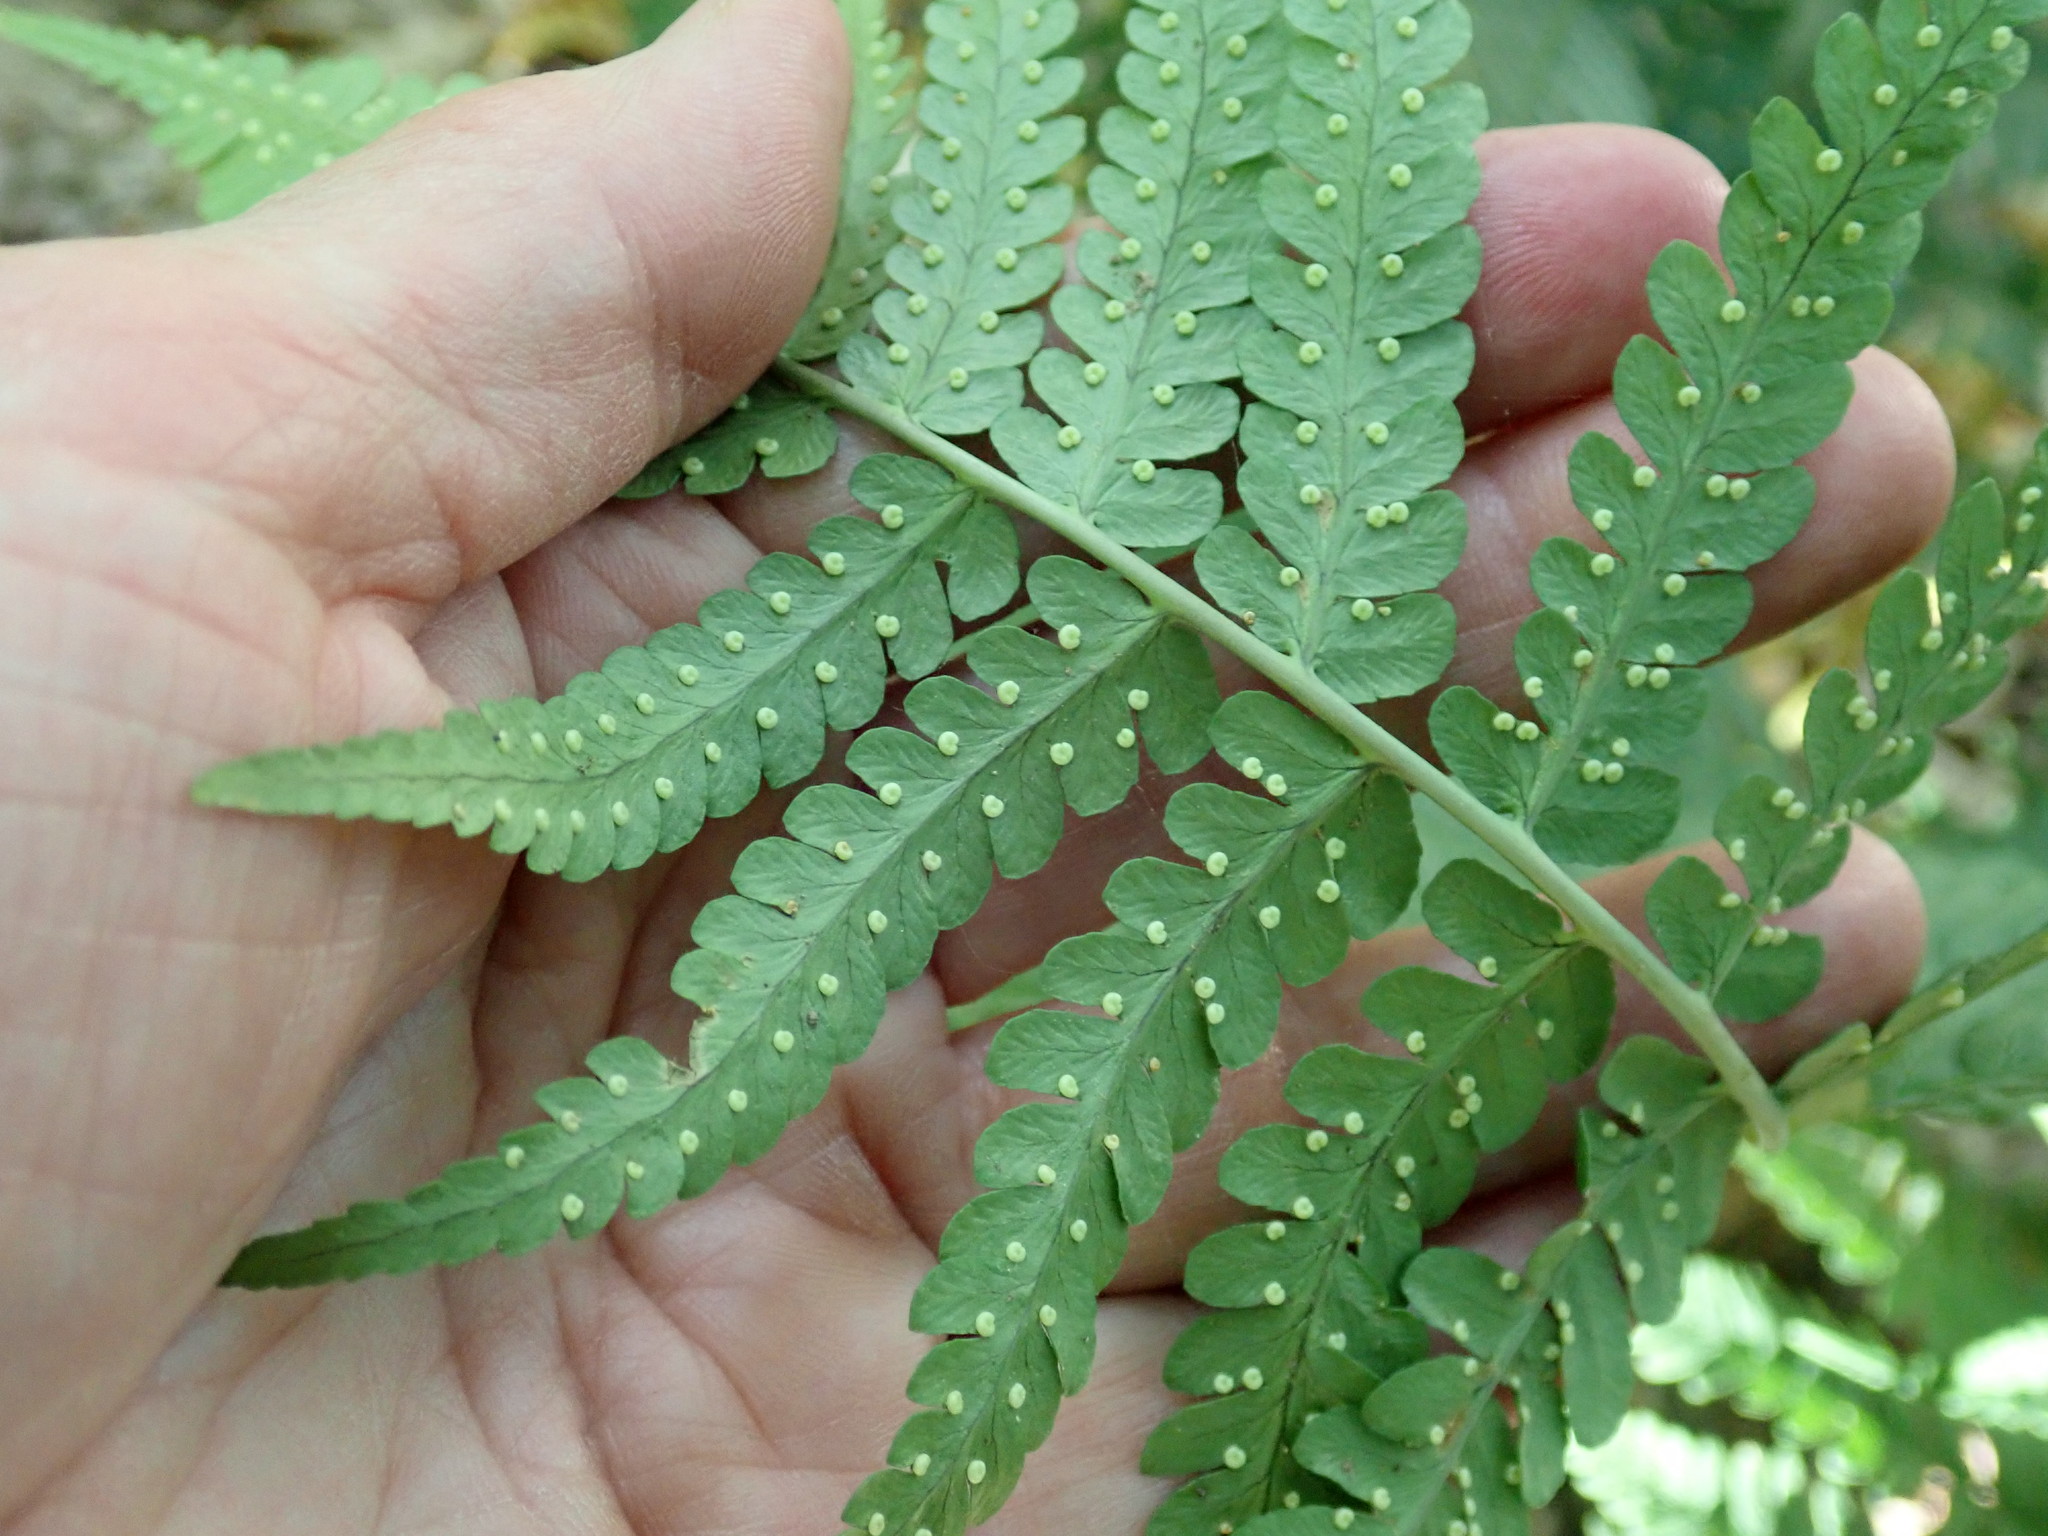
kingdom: Plantae
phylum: Tracheophyta
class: Polypodiopsida
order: Polypodiales
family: Dryopteridaceae
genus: Dryopteris
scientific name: Dryopteris marginalis
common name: Marginal wood fern
